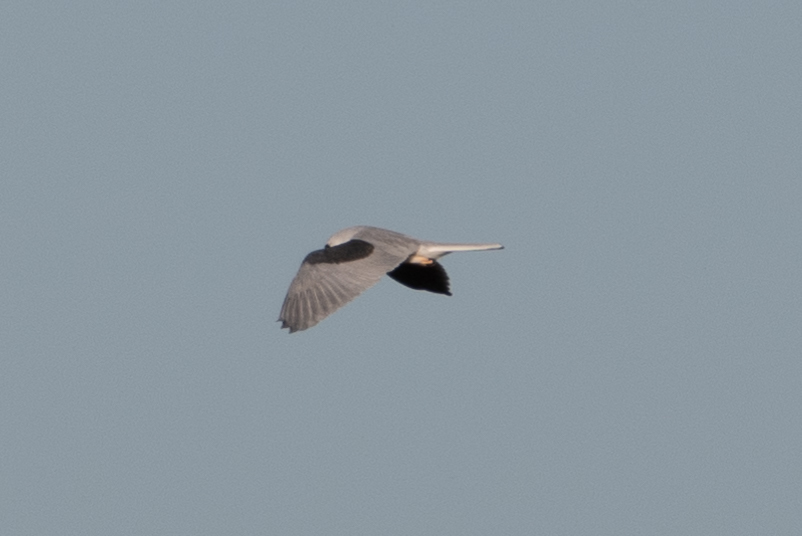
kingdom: Animalia
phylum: Chordata
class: Aves
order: Accipitriformes
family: Accipitridae
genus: Elanus
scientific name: Elanus leucurus
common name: White-tailed kite
